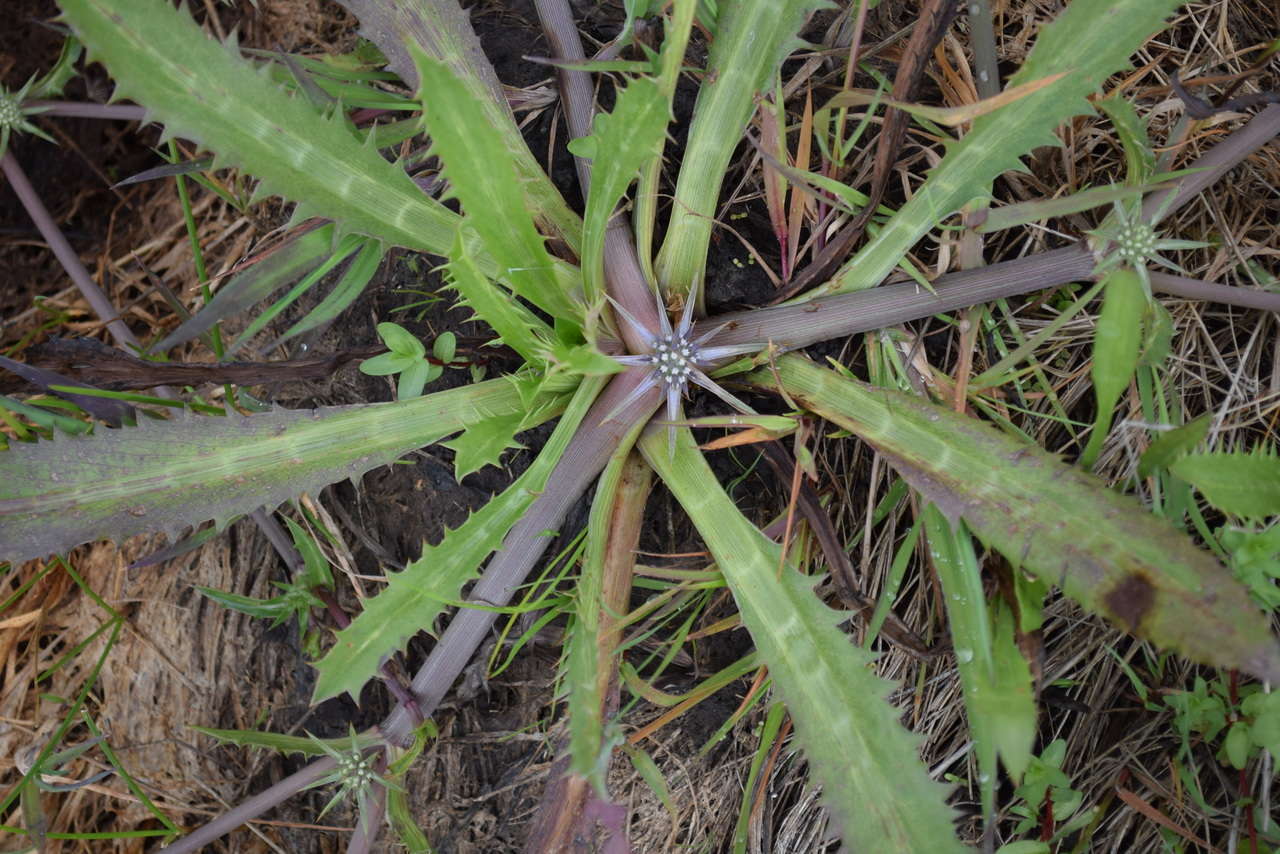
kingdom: Plantae
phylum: Tracheophyta
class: Magnoliopsida
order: Apiales
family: Apiaceae
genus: Eryngium
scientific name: Eryngium vesiculosum
